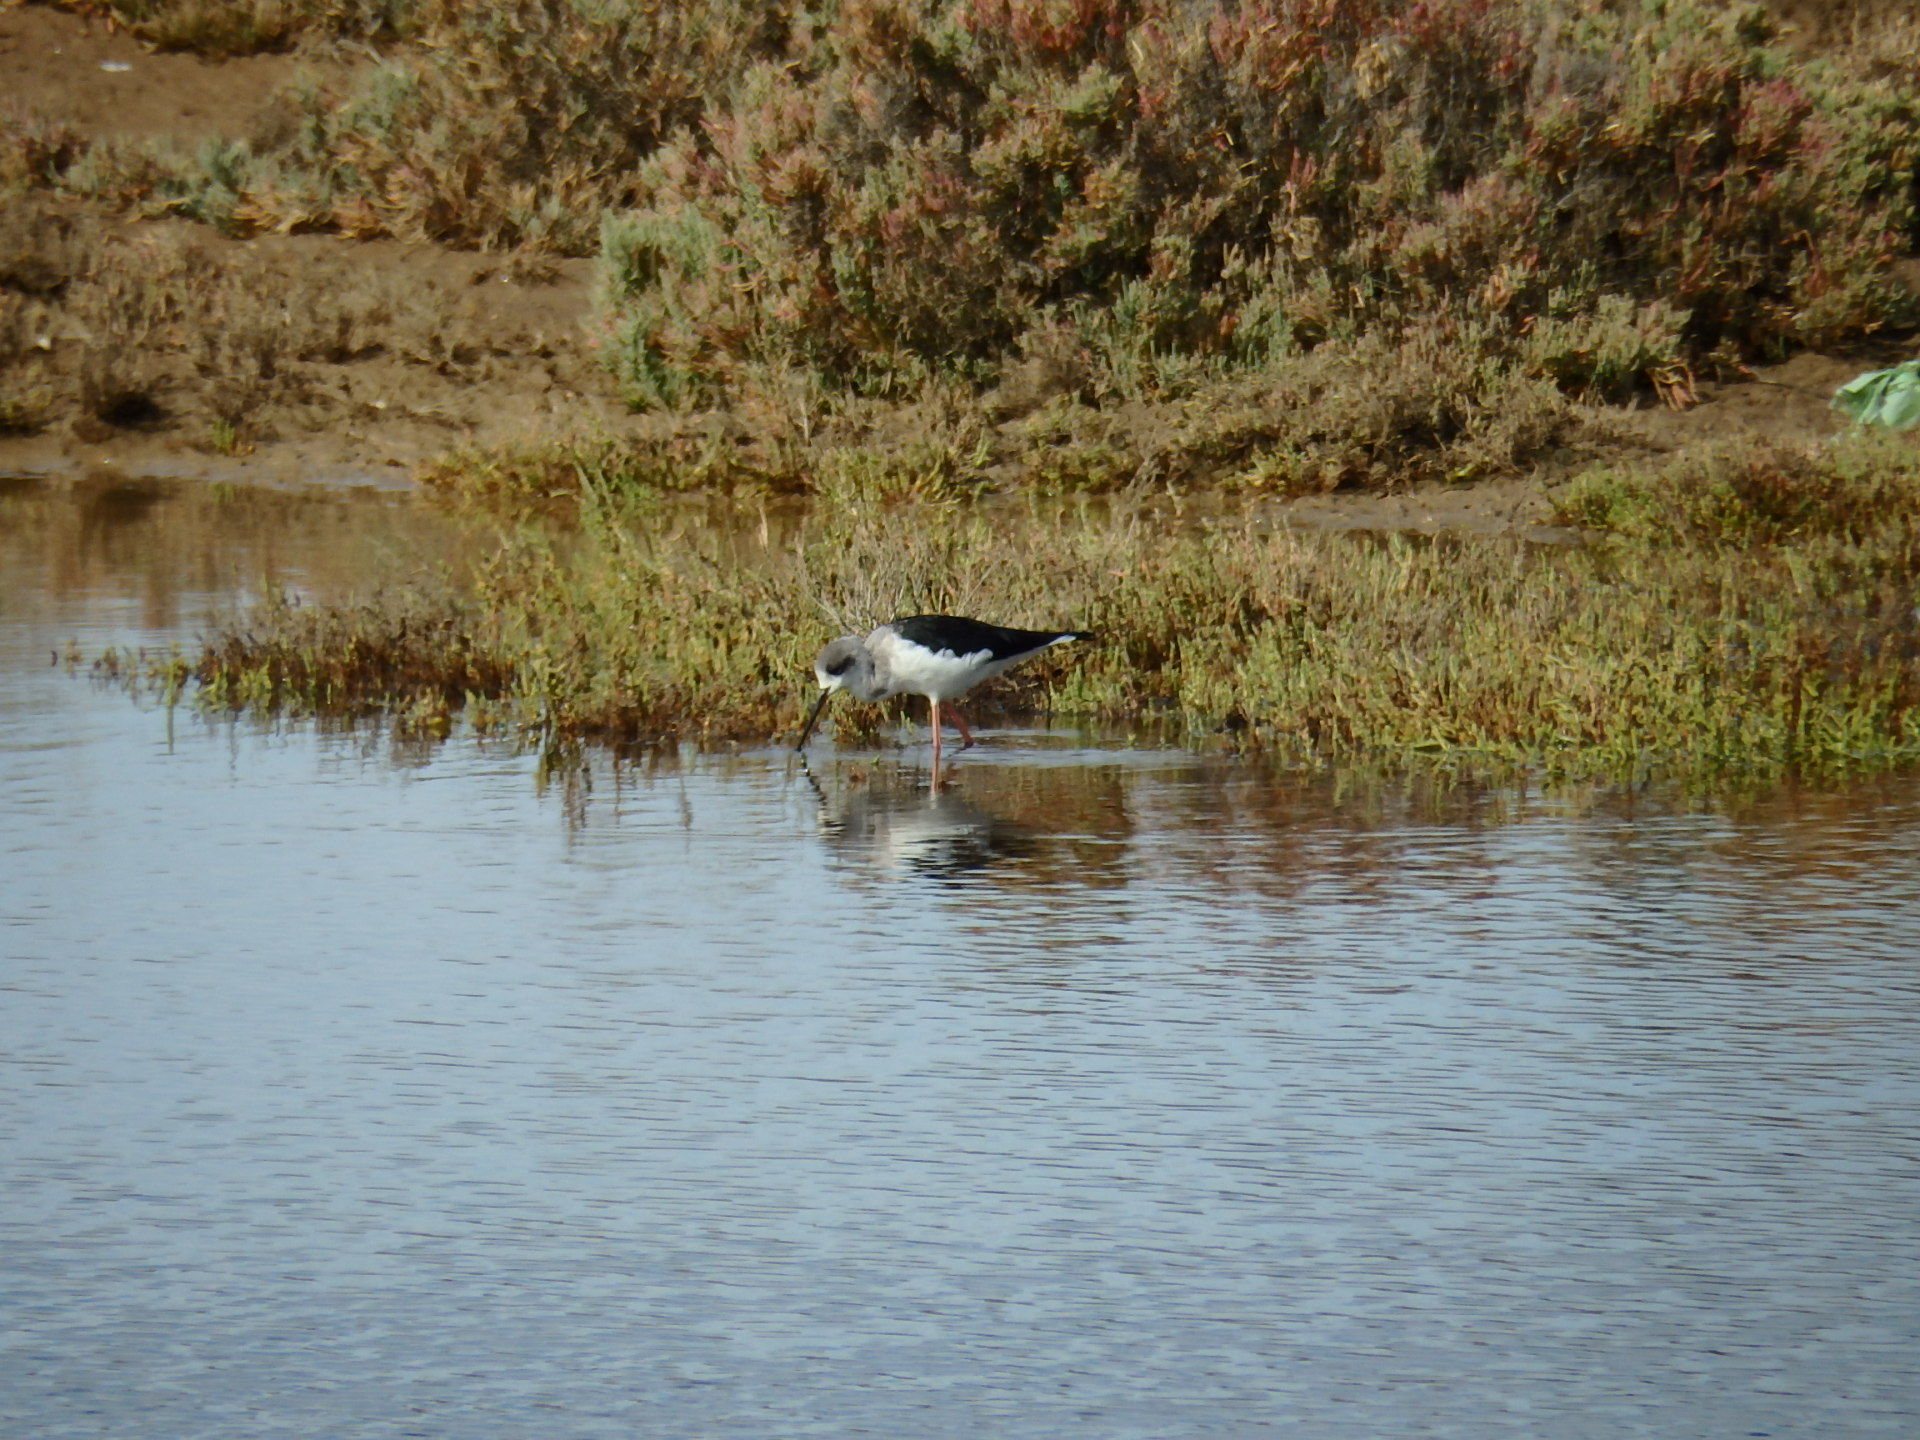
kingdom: Animalia
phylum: Chordata
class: Aves
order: Charadriiformes
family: Recurvirostridae
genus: Himantopus
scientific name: Himantopus himantopus
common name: Black-winged stilt
